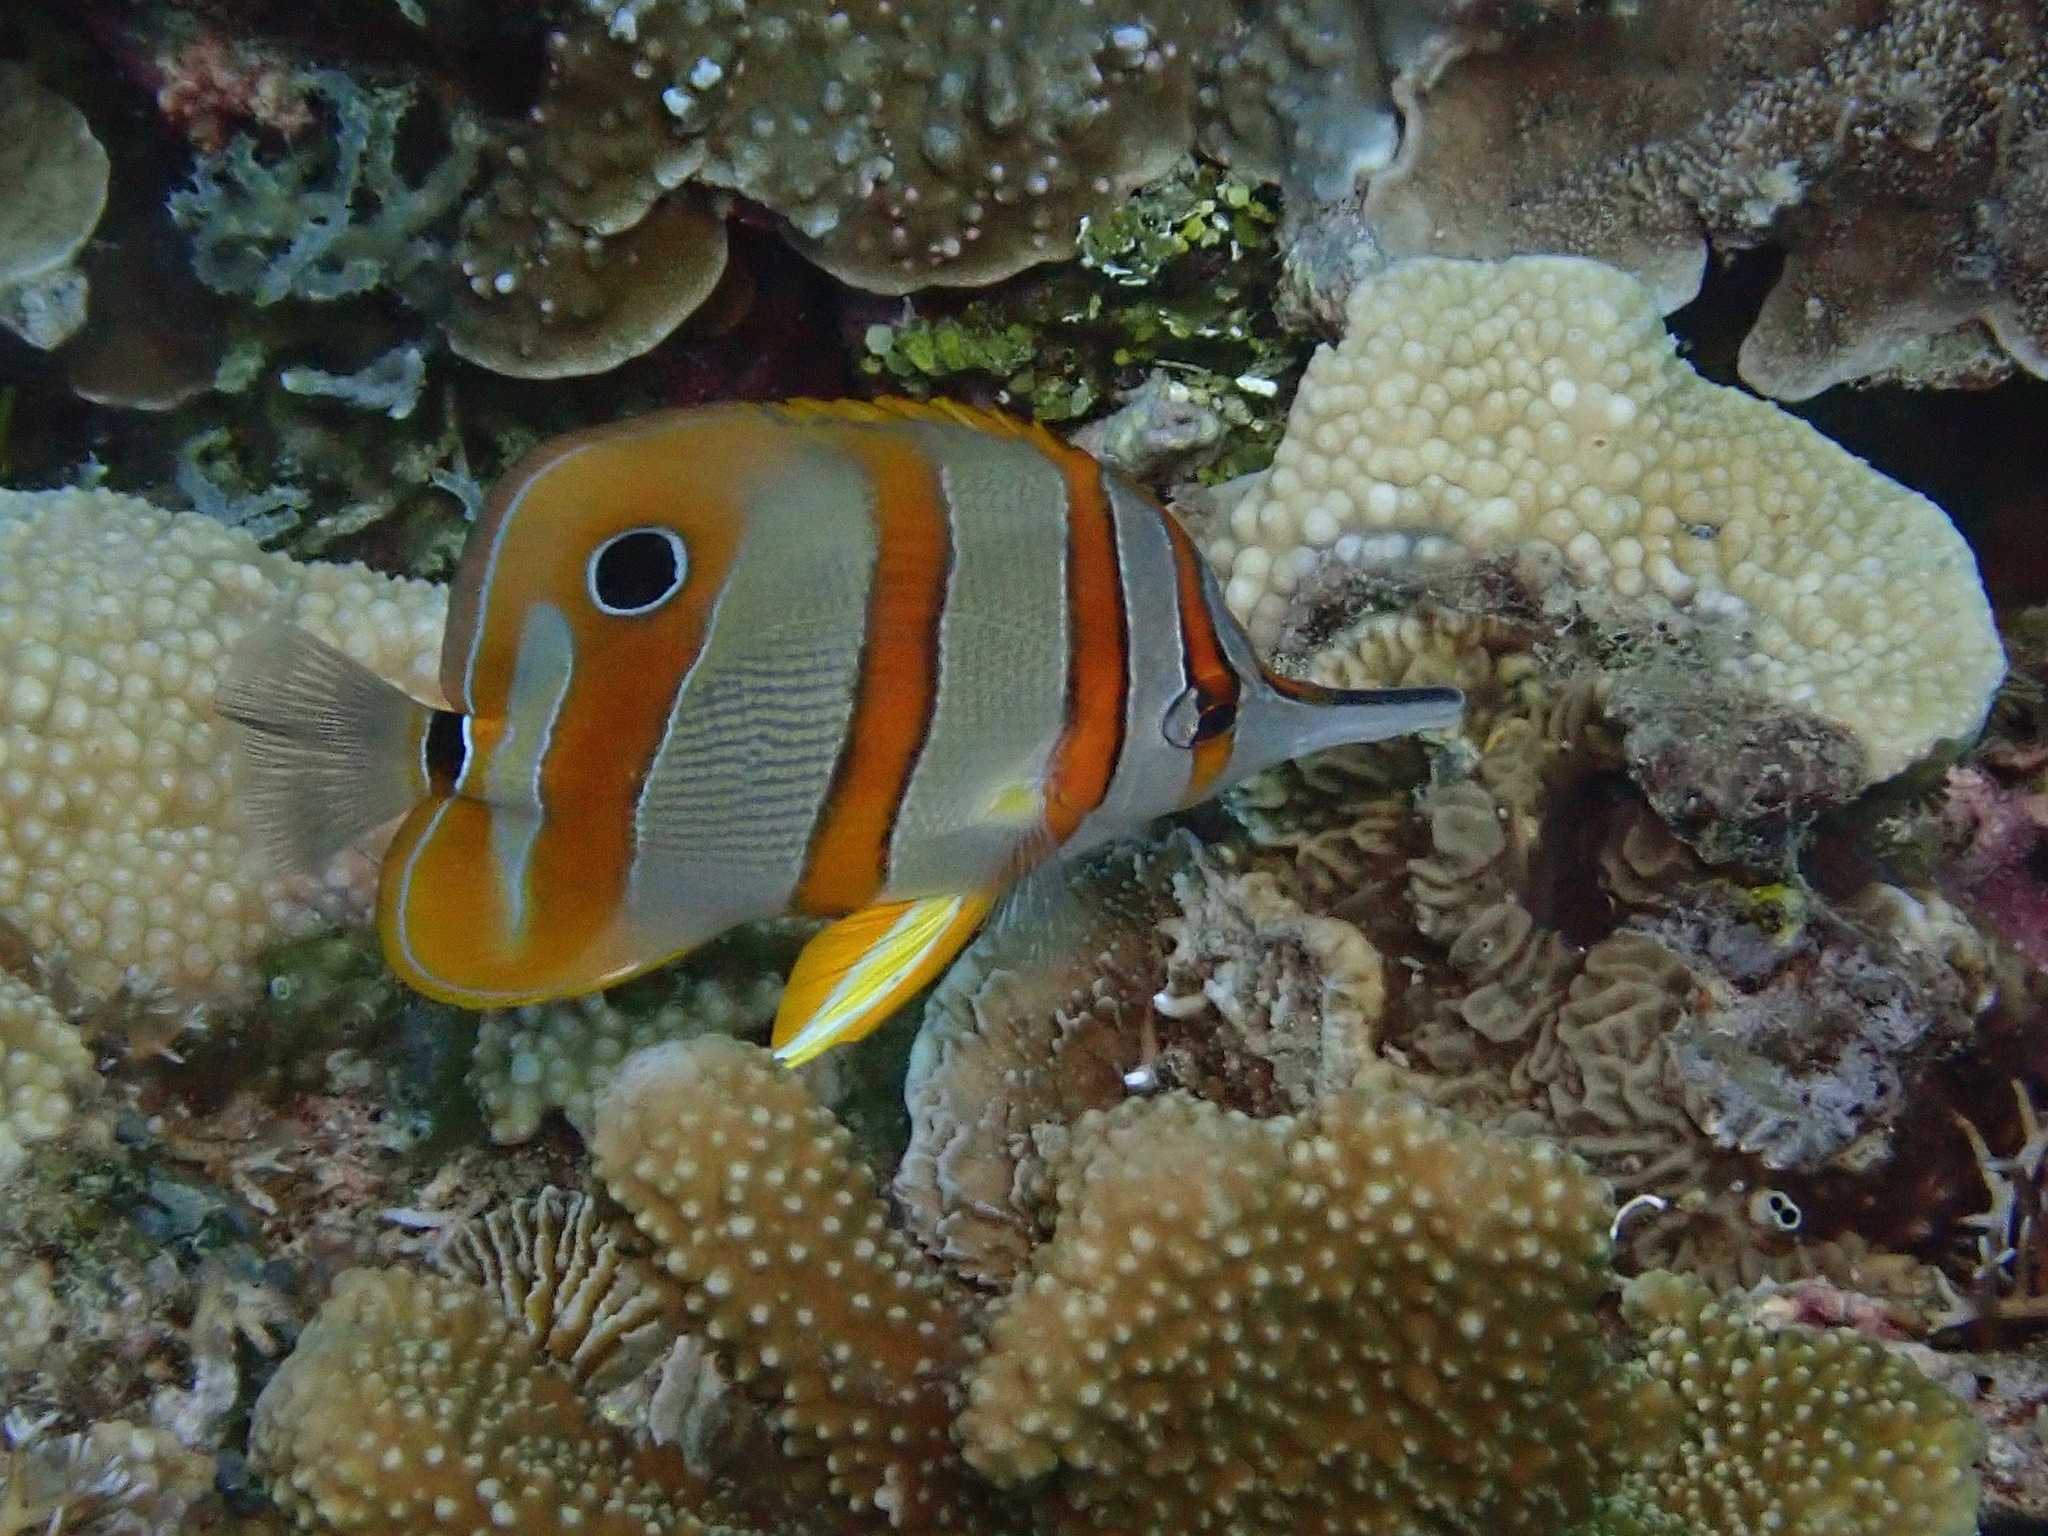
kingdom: Animalia
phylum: Chordata
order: Perciformes
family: Chaetodontidae
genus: Chelmon
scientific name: Chelmon rostratus
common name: Beaked butterflyfish
